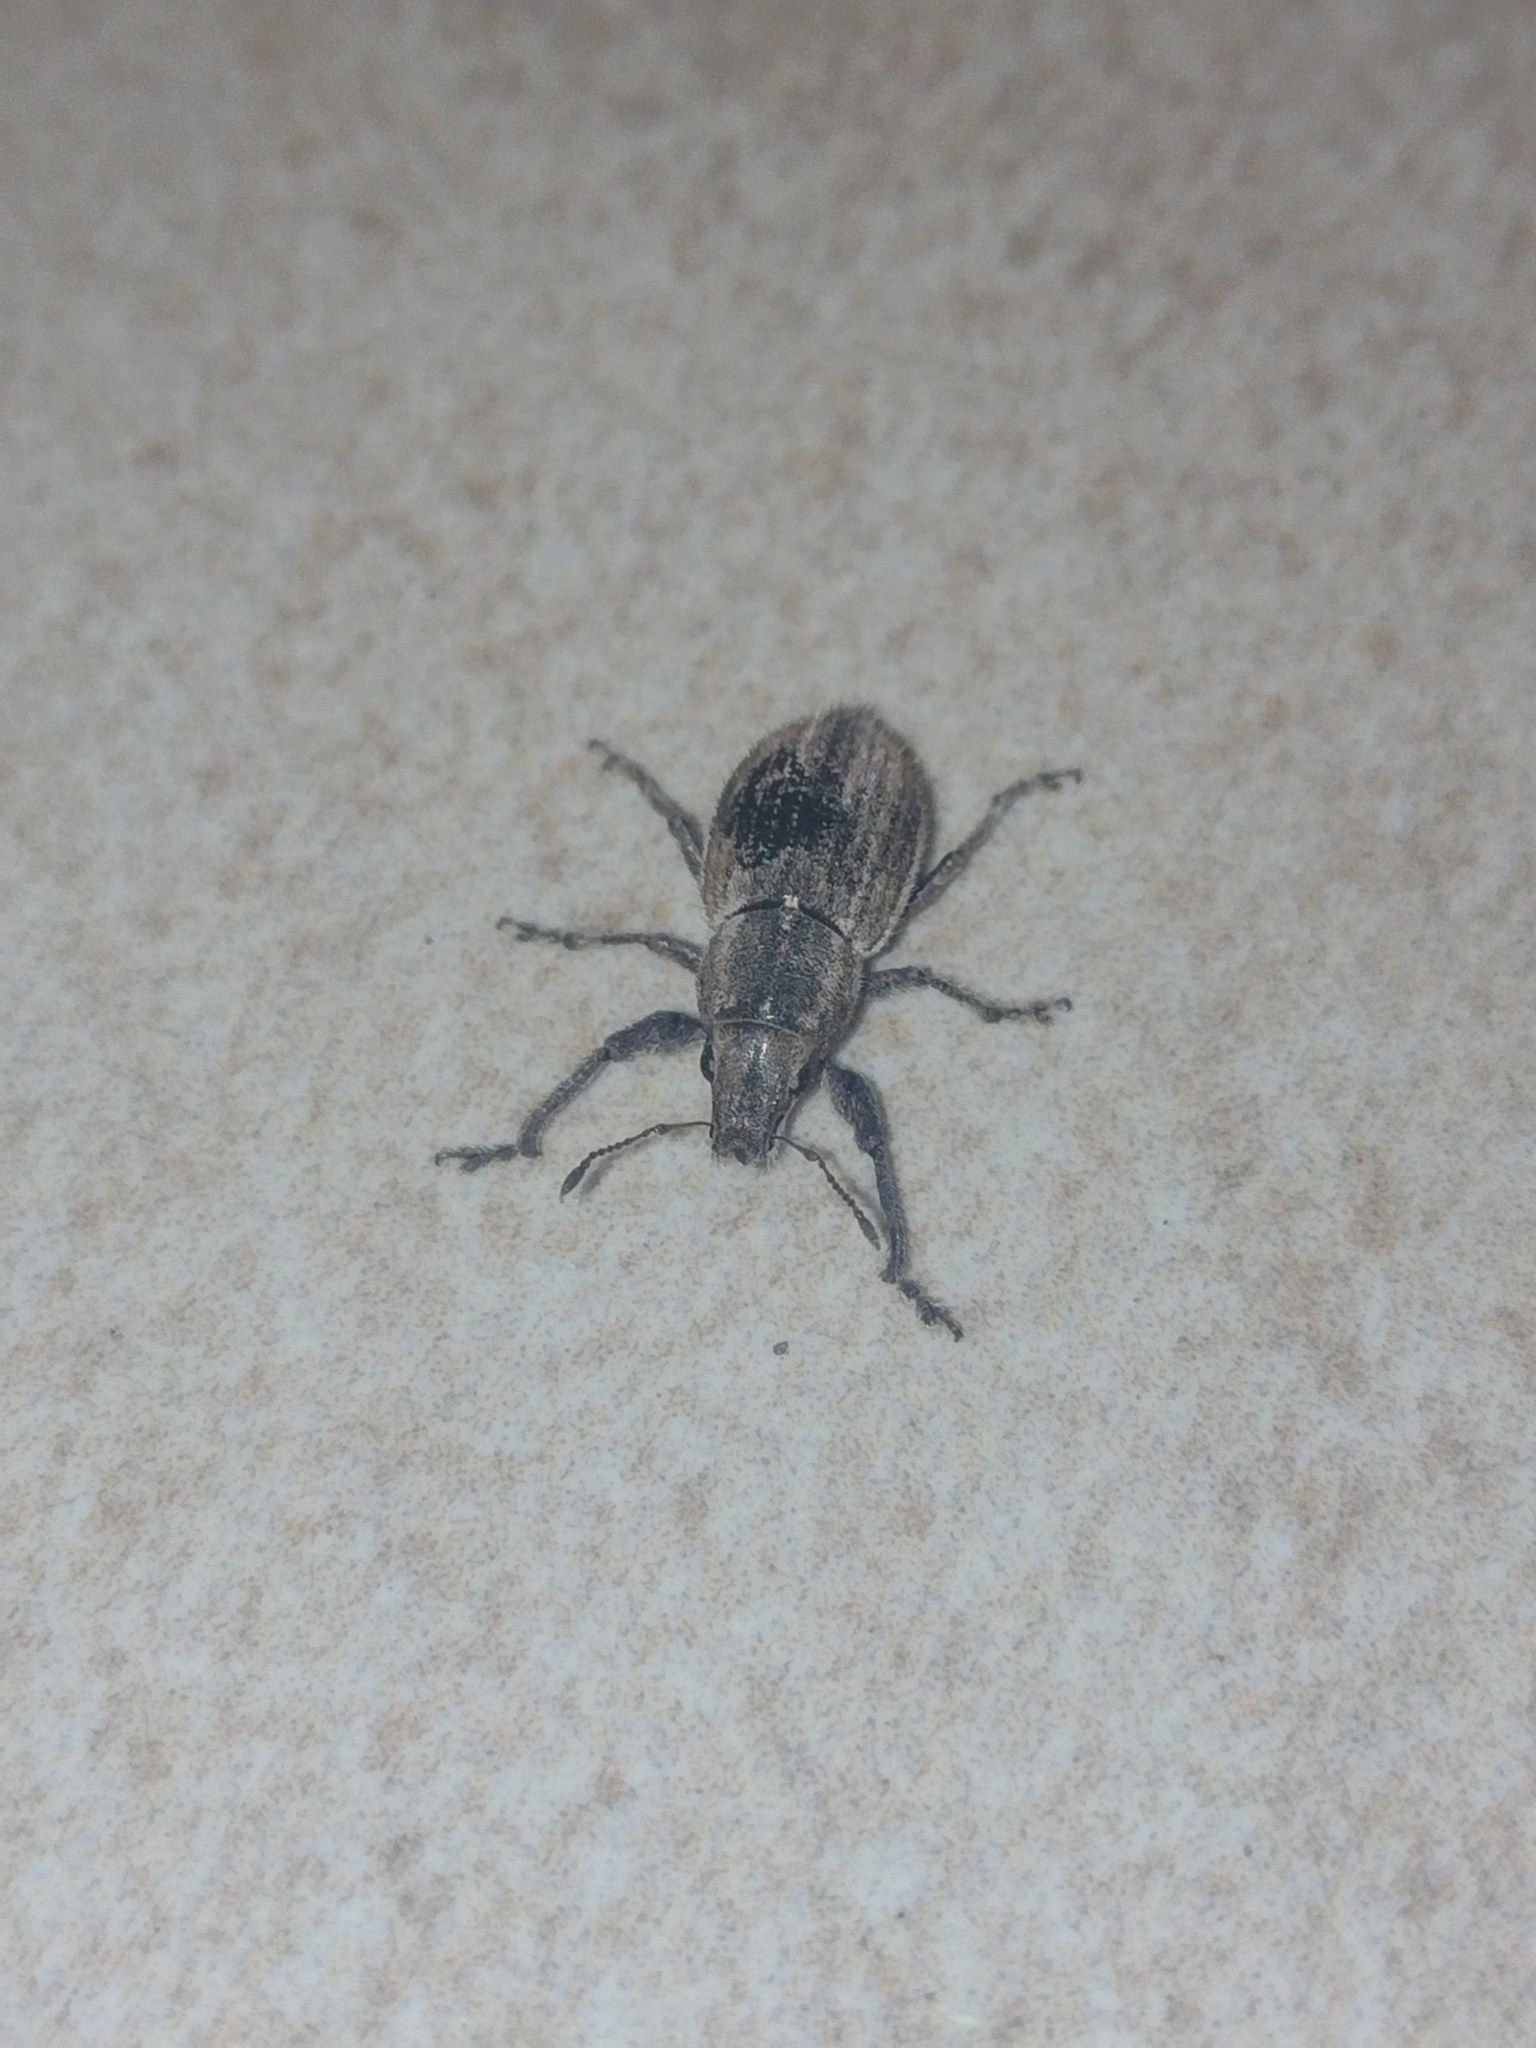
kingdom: Animalia
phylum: Arthropoda
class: Insecta
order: Coleoptera
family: Curculionidae
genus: Naupactus
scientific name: Naupactus leucoloma
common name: Whitefringed beetle
